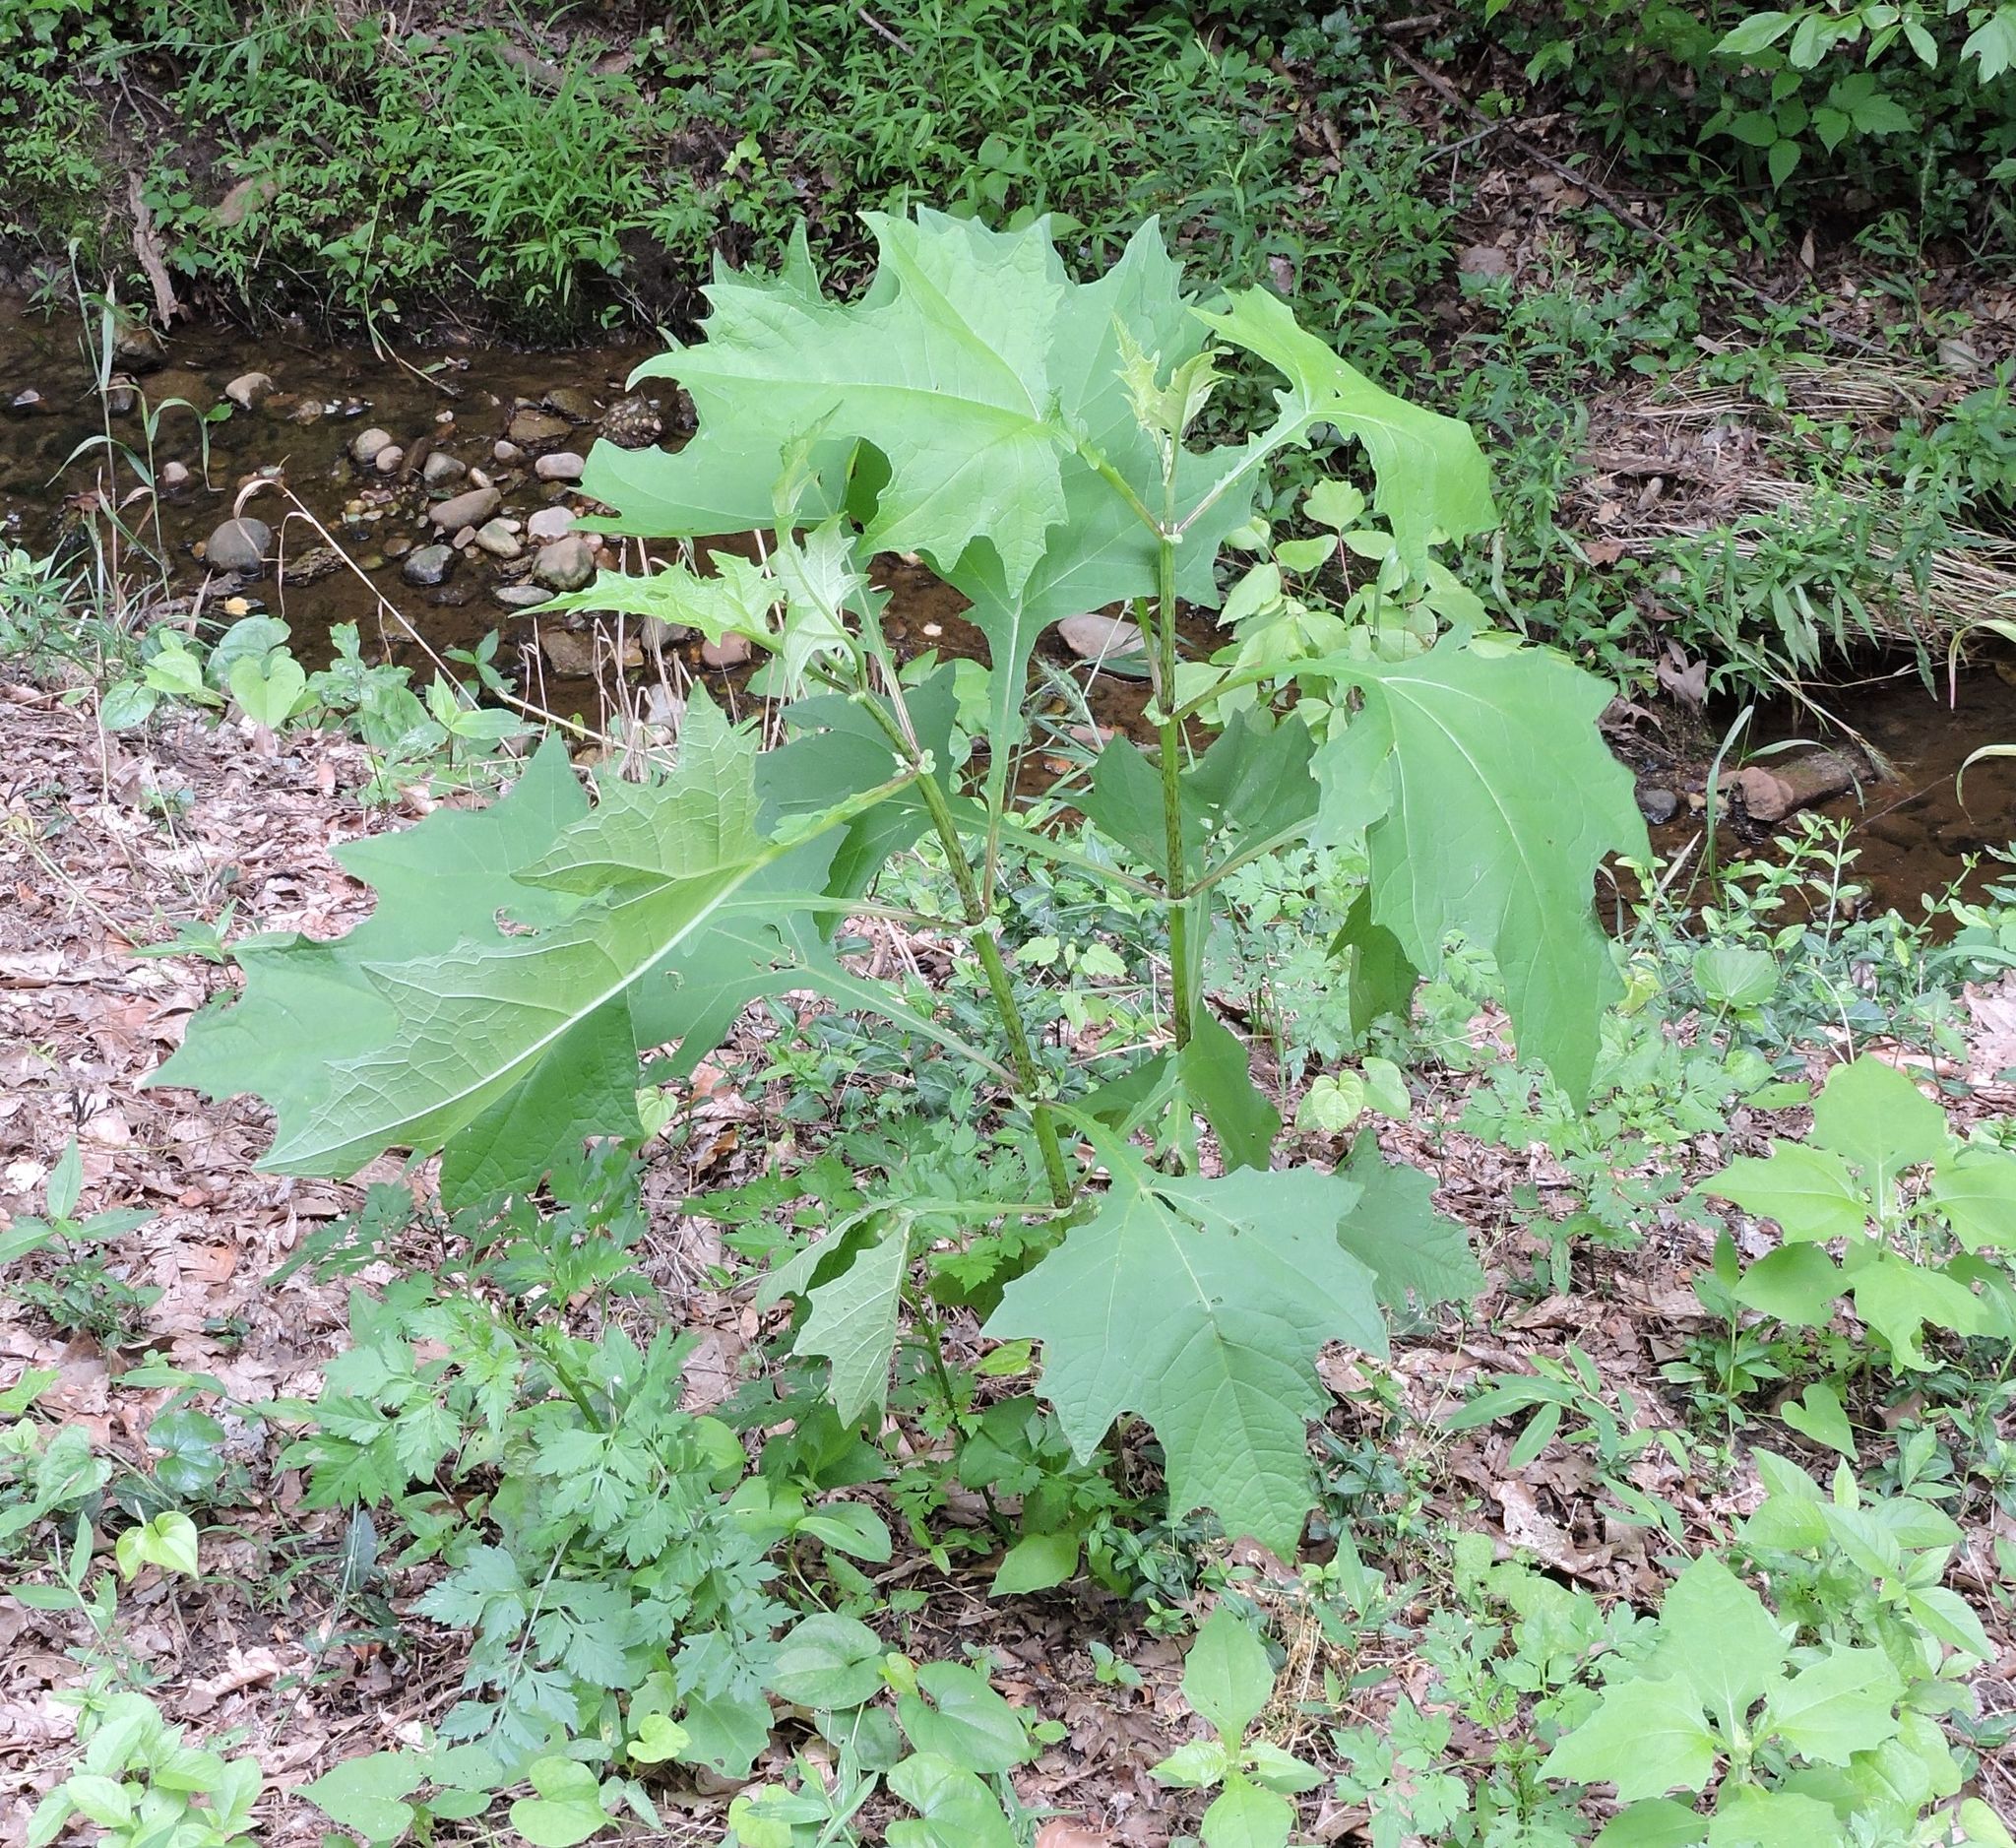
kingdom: Plantae
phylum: Tracheophyta
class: Magnoliopsida
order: Asterales
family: Asteraceae
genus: Smallanthus
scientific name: Smallanthus uvedalia
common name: Bear's-foot
